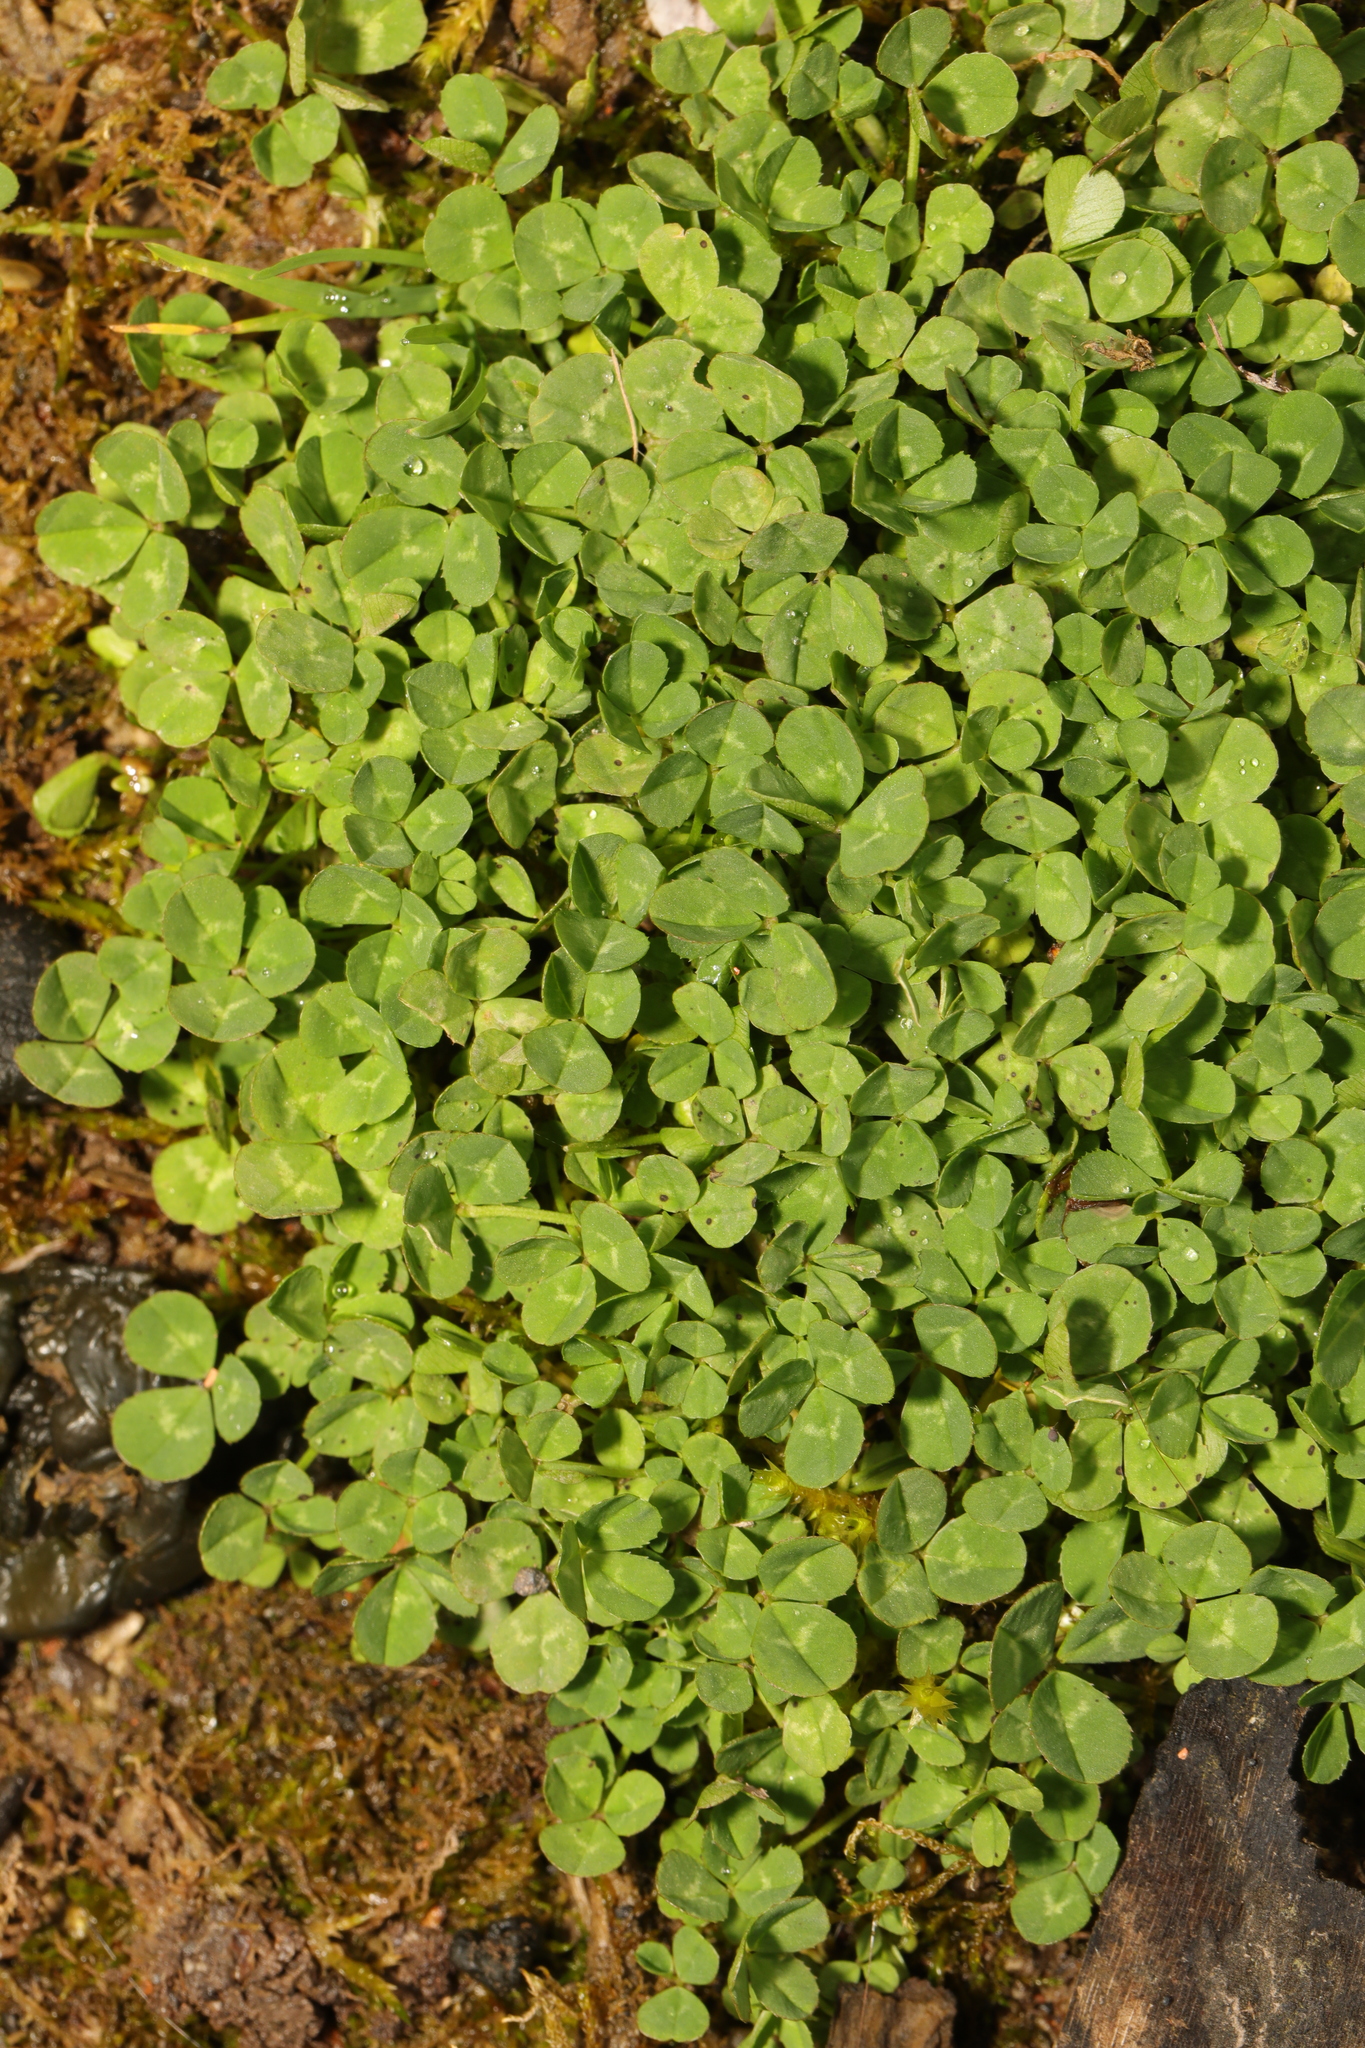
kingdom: Plantae
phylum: Tracheophyta
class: Magnoliopsida
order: Fabales
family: Fabaceae
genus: Trifolium
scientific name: Trifolium repens
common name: White clover
